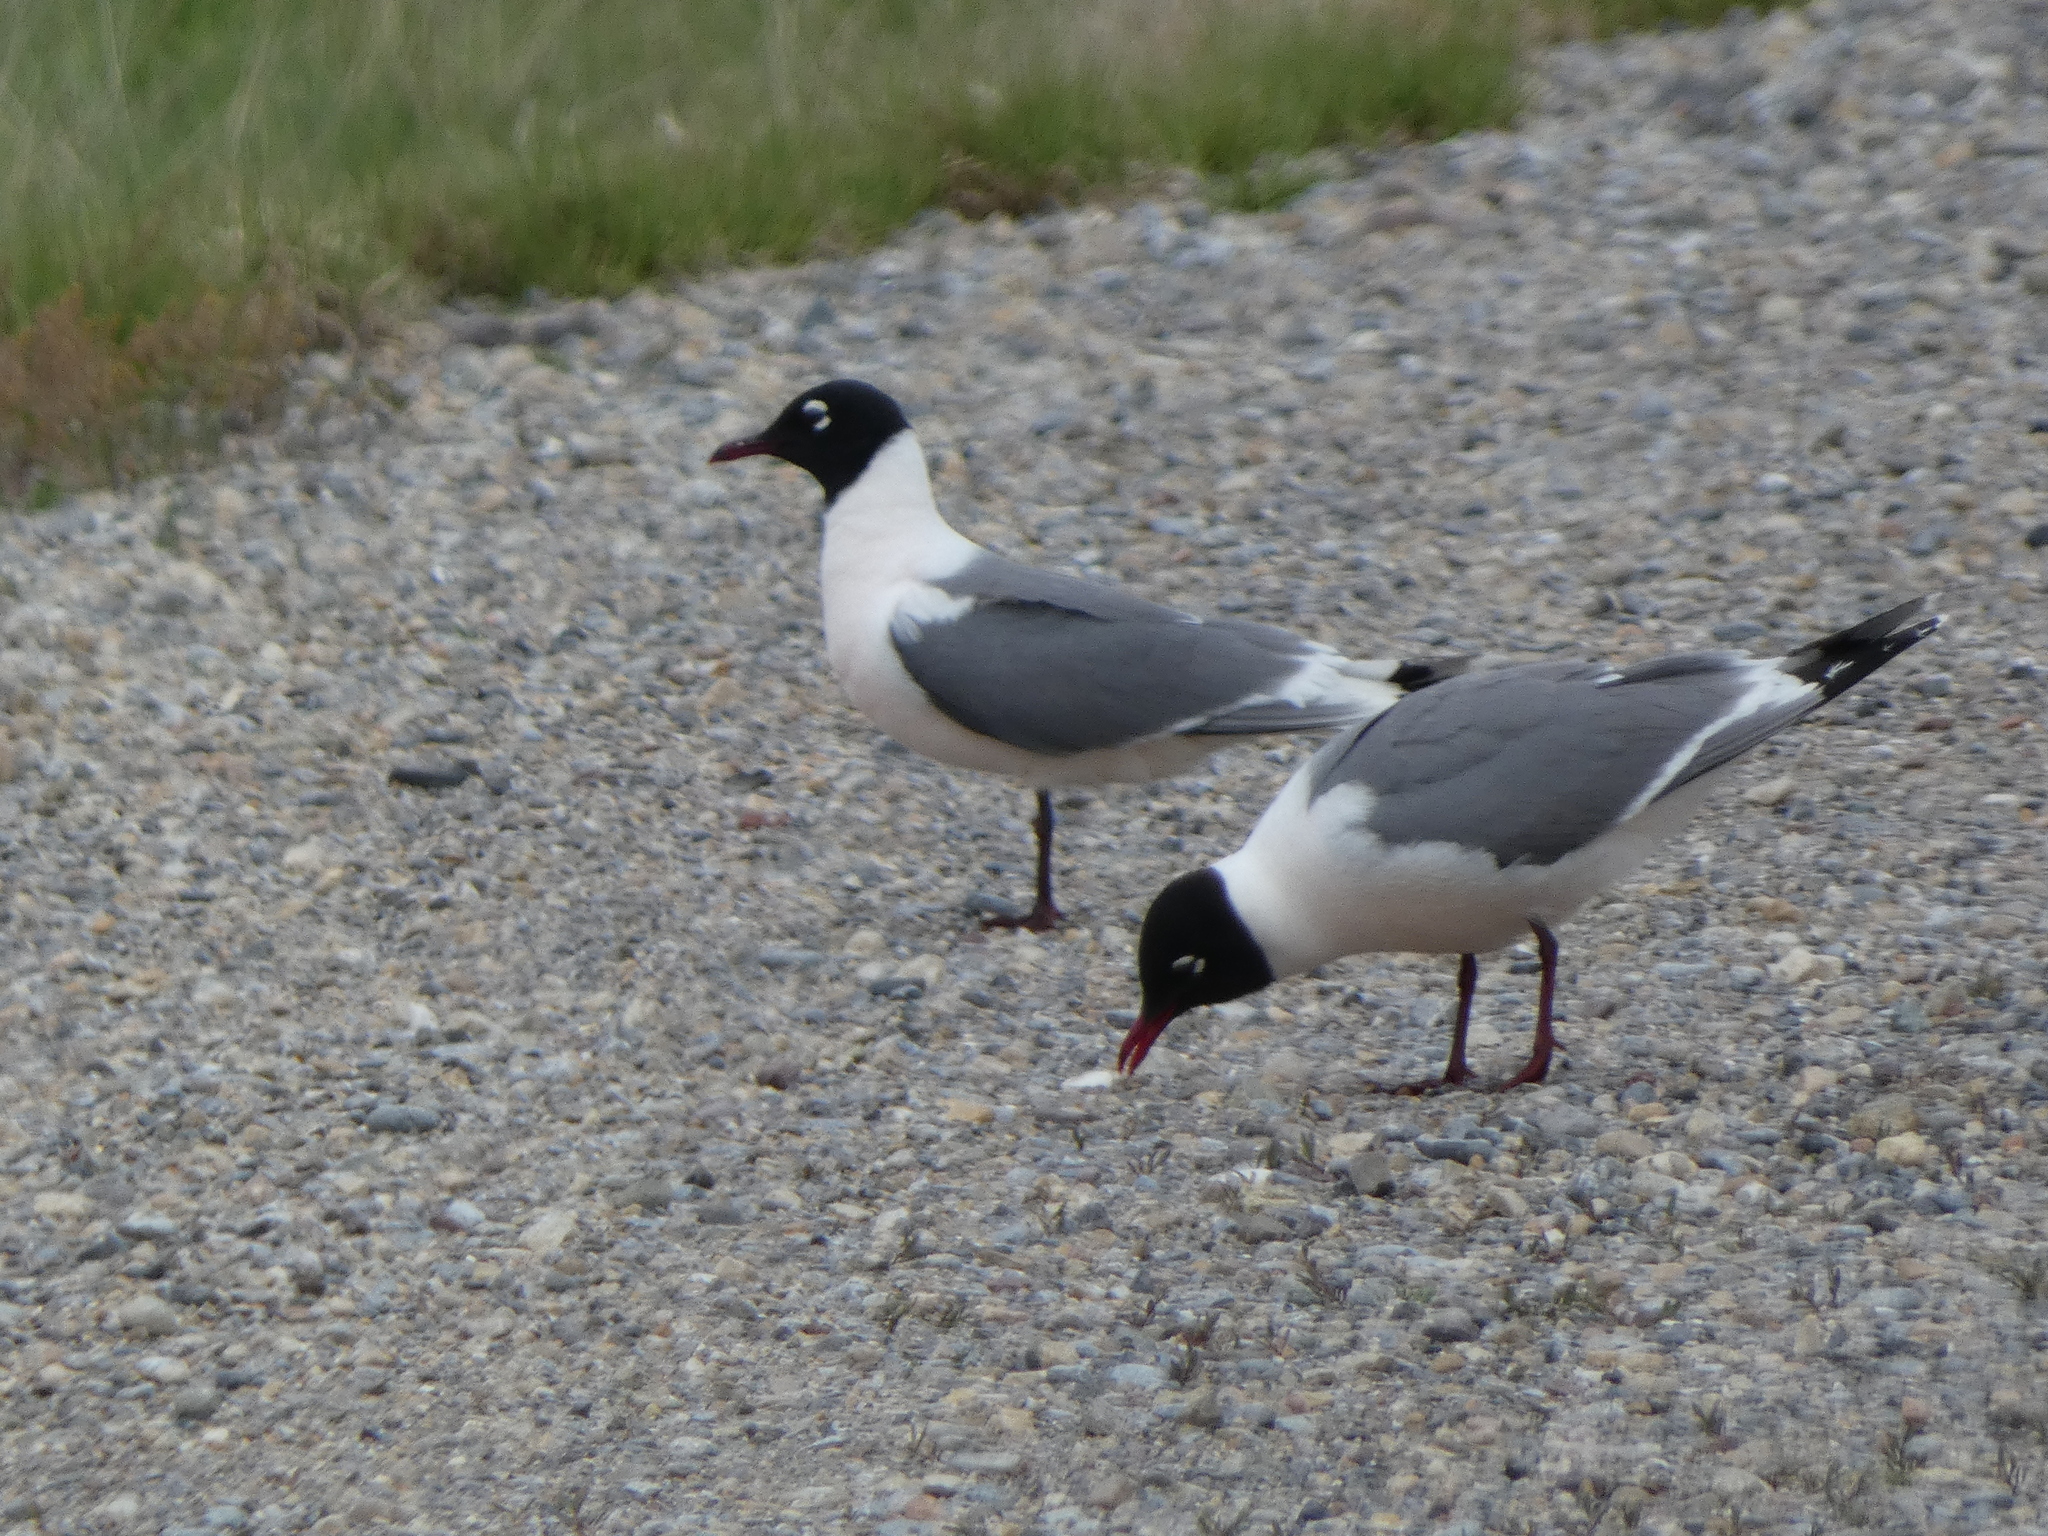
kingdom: Animalia
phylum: Chordata
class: Aves
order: Charadriiformes
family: Laridae
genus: Leucophaeus
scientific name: Leucophaeus pipixcan
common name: Franklin's gull
